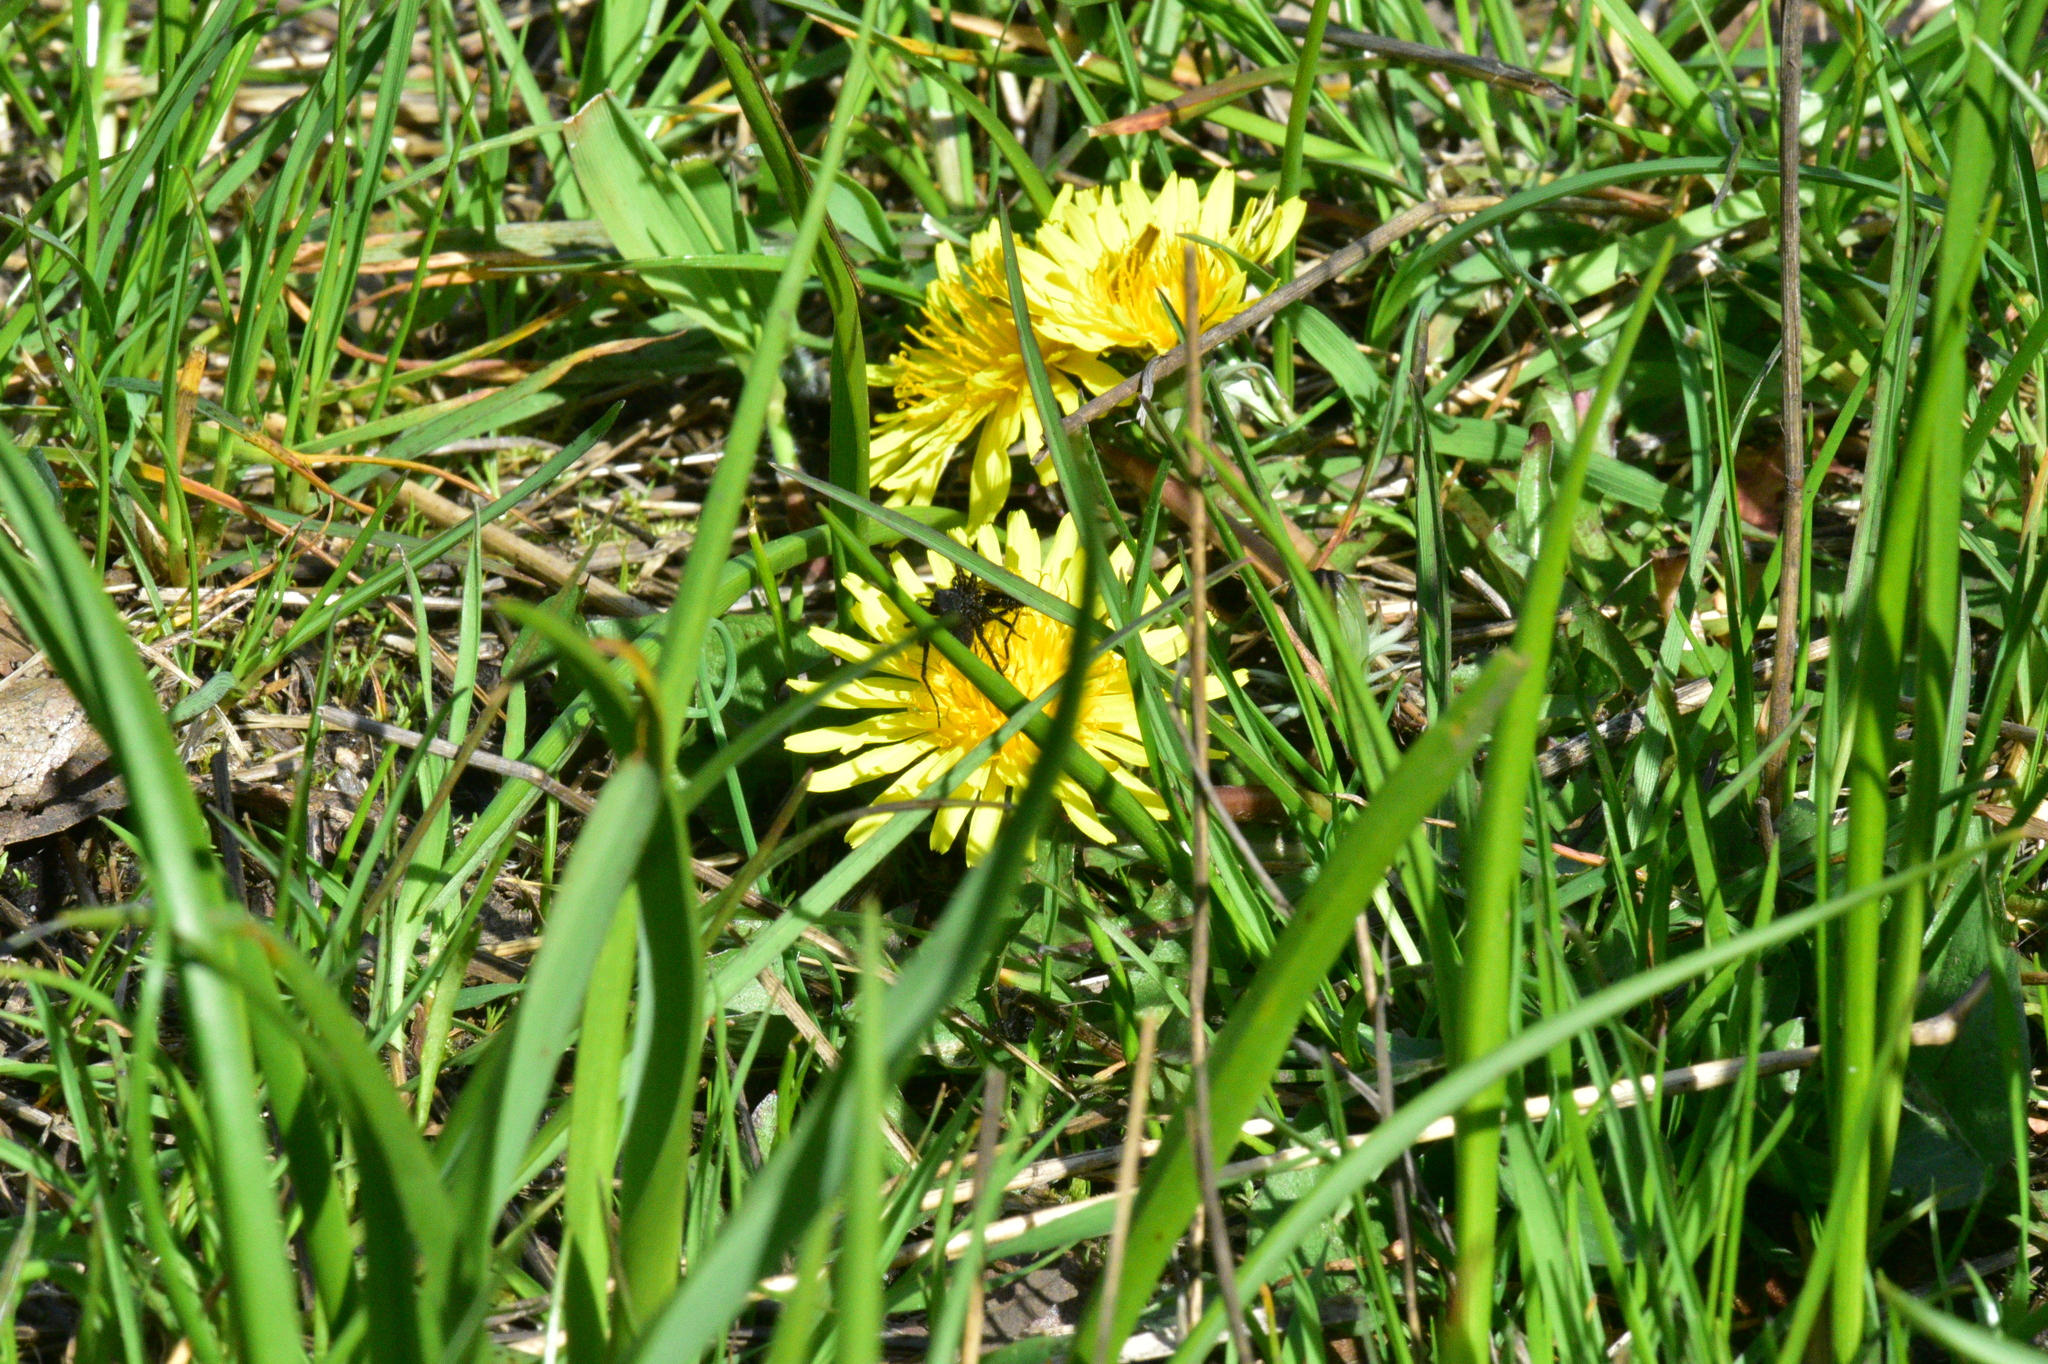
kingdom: Plantae
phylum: Tracheophyta
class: Magnoliopsida
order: Asterales
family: Asteraceae
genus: Taraxacum
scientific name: Taraxacum officinale
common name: Common dandelion
